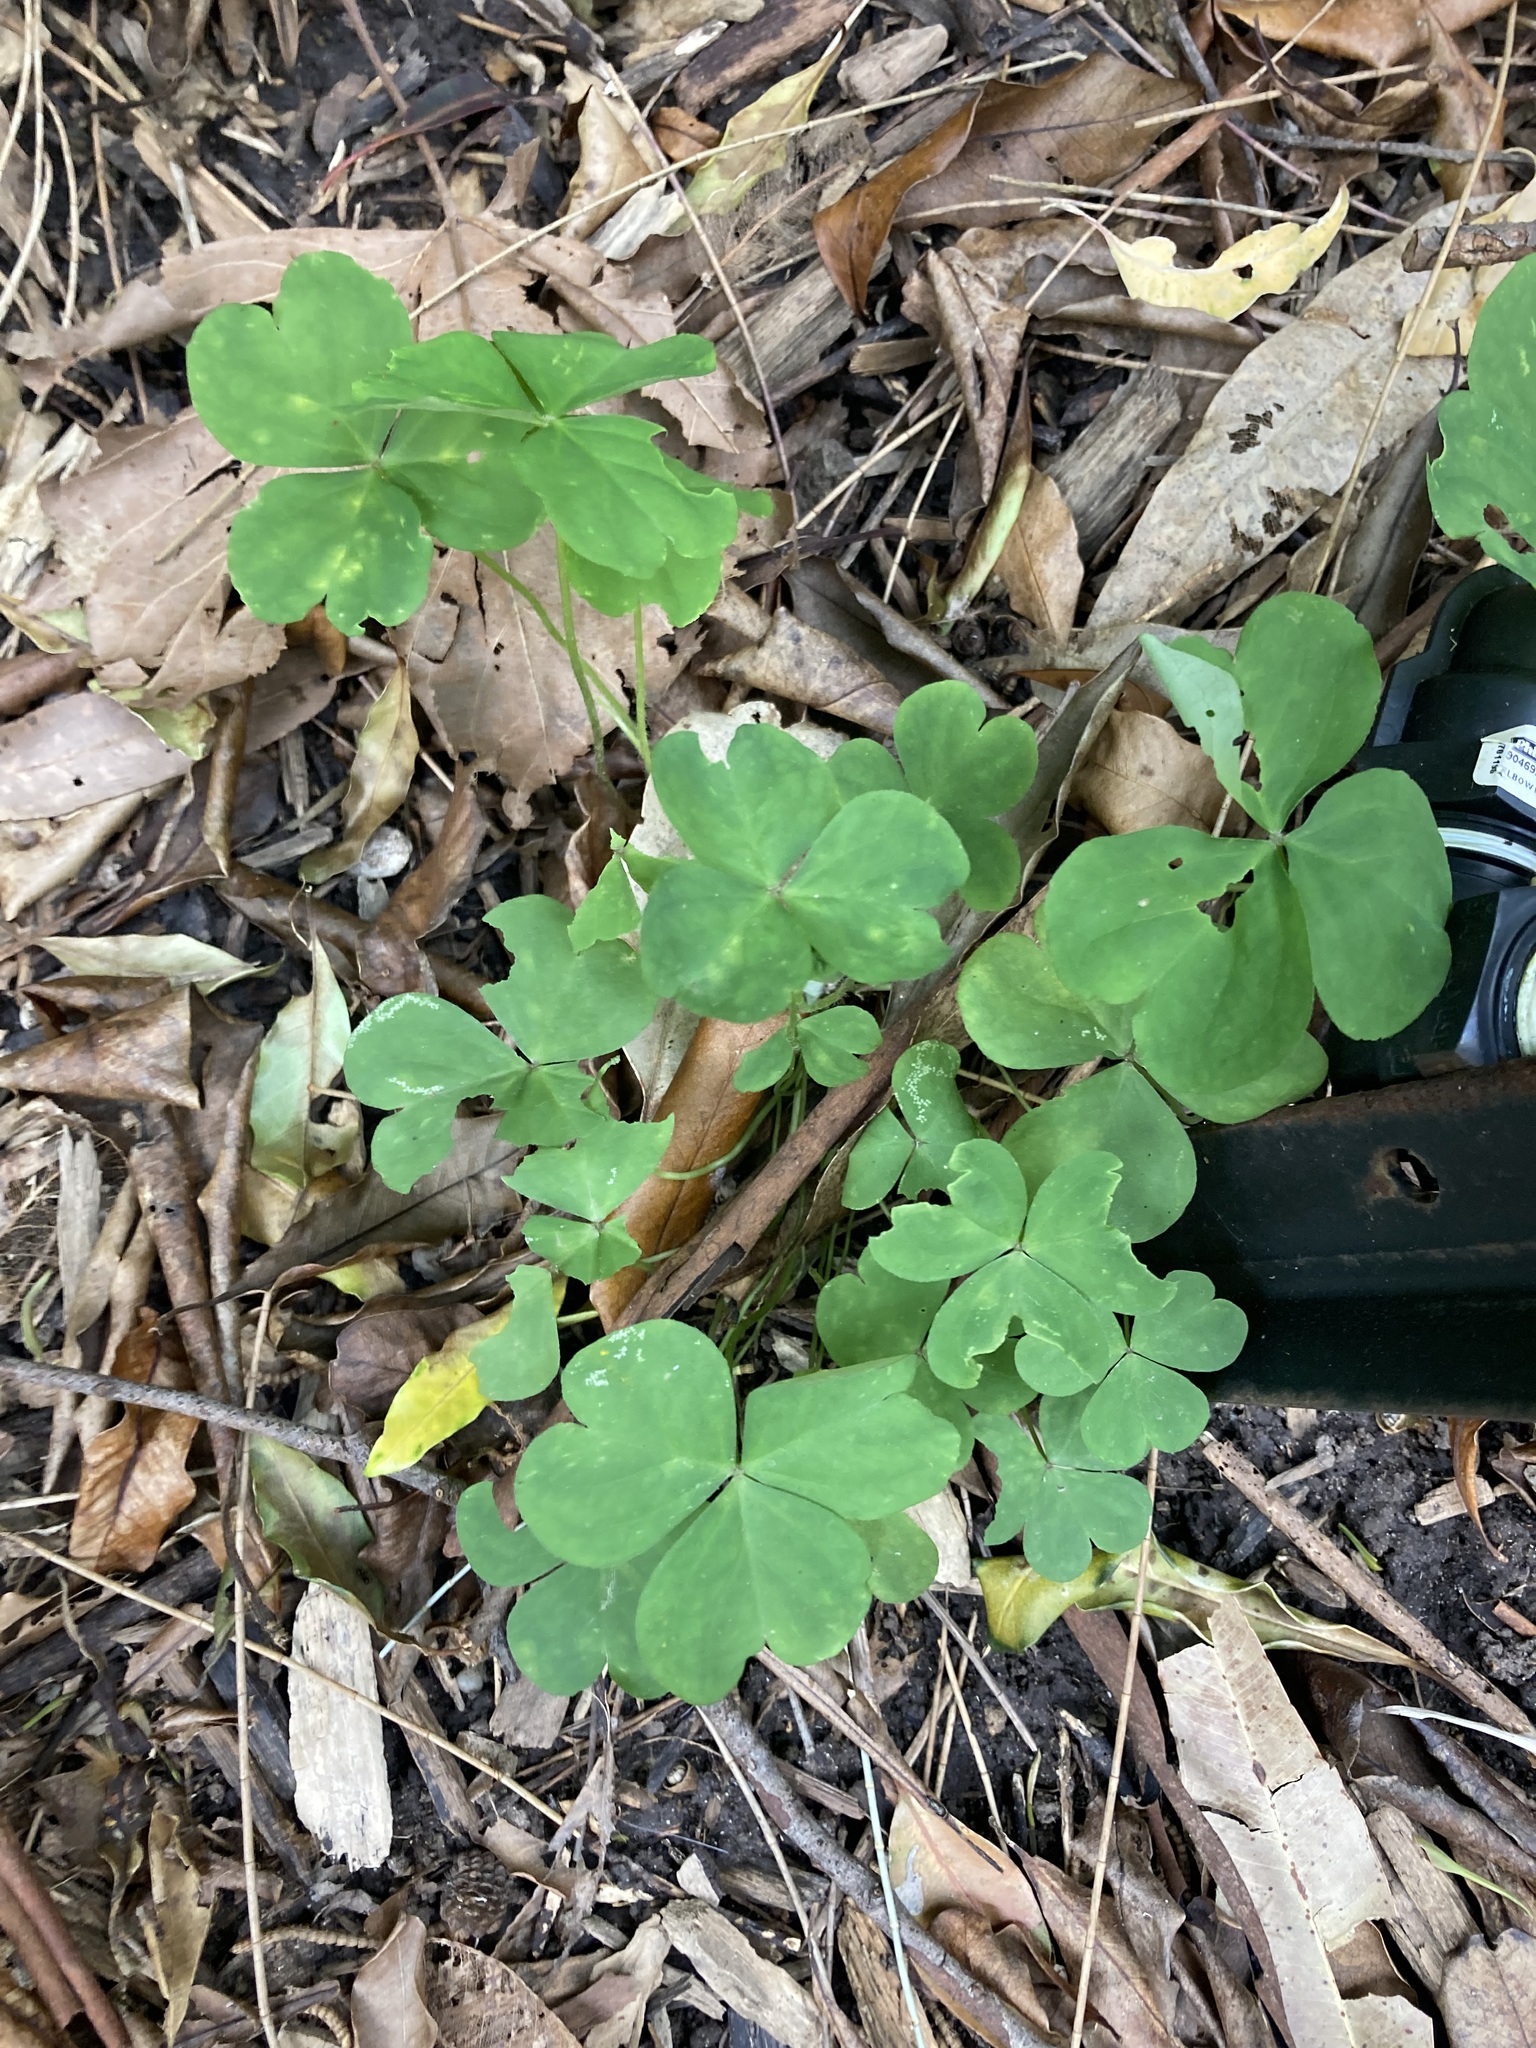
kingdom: Plantae
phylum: Tracheophyta
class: Magnoliopsida
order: Oxalidales
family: Oxalidaceae
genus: Oxalis
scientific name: Oxalis debilis
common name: Large-flowered pink-sorrel
